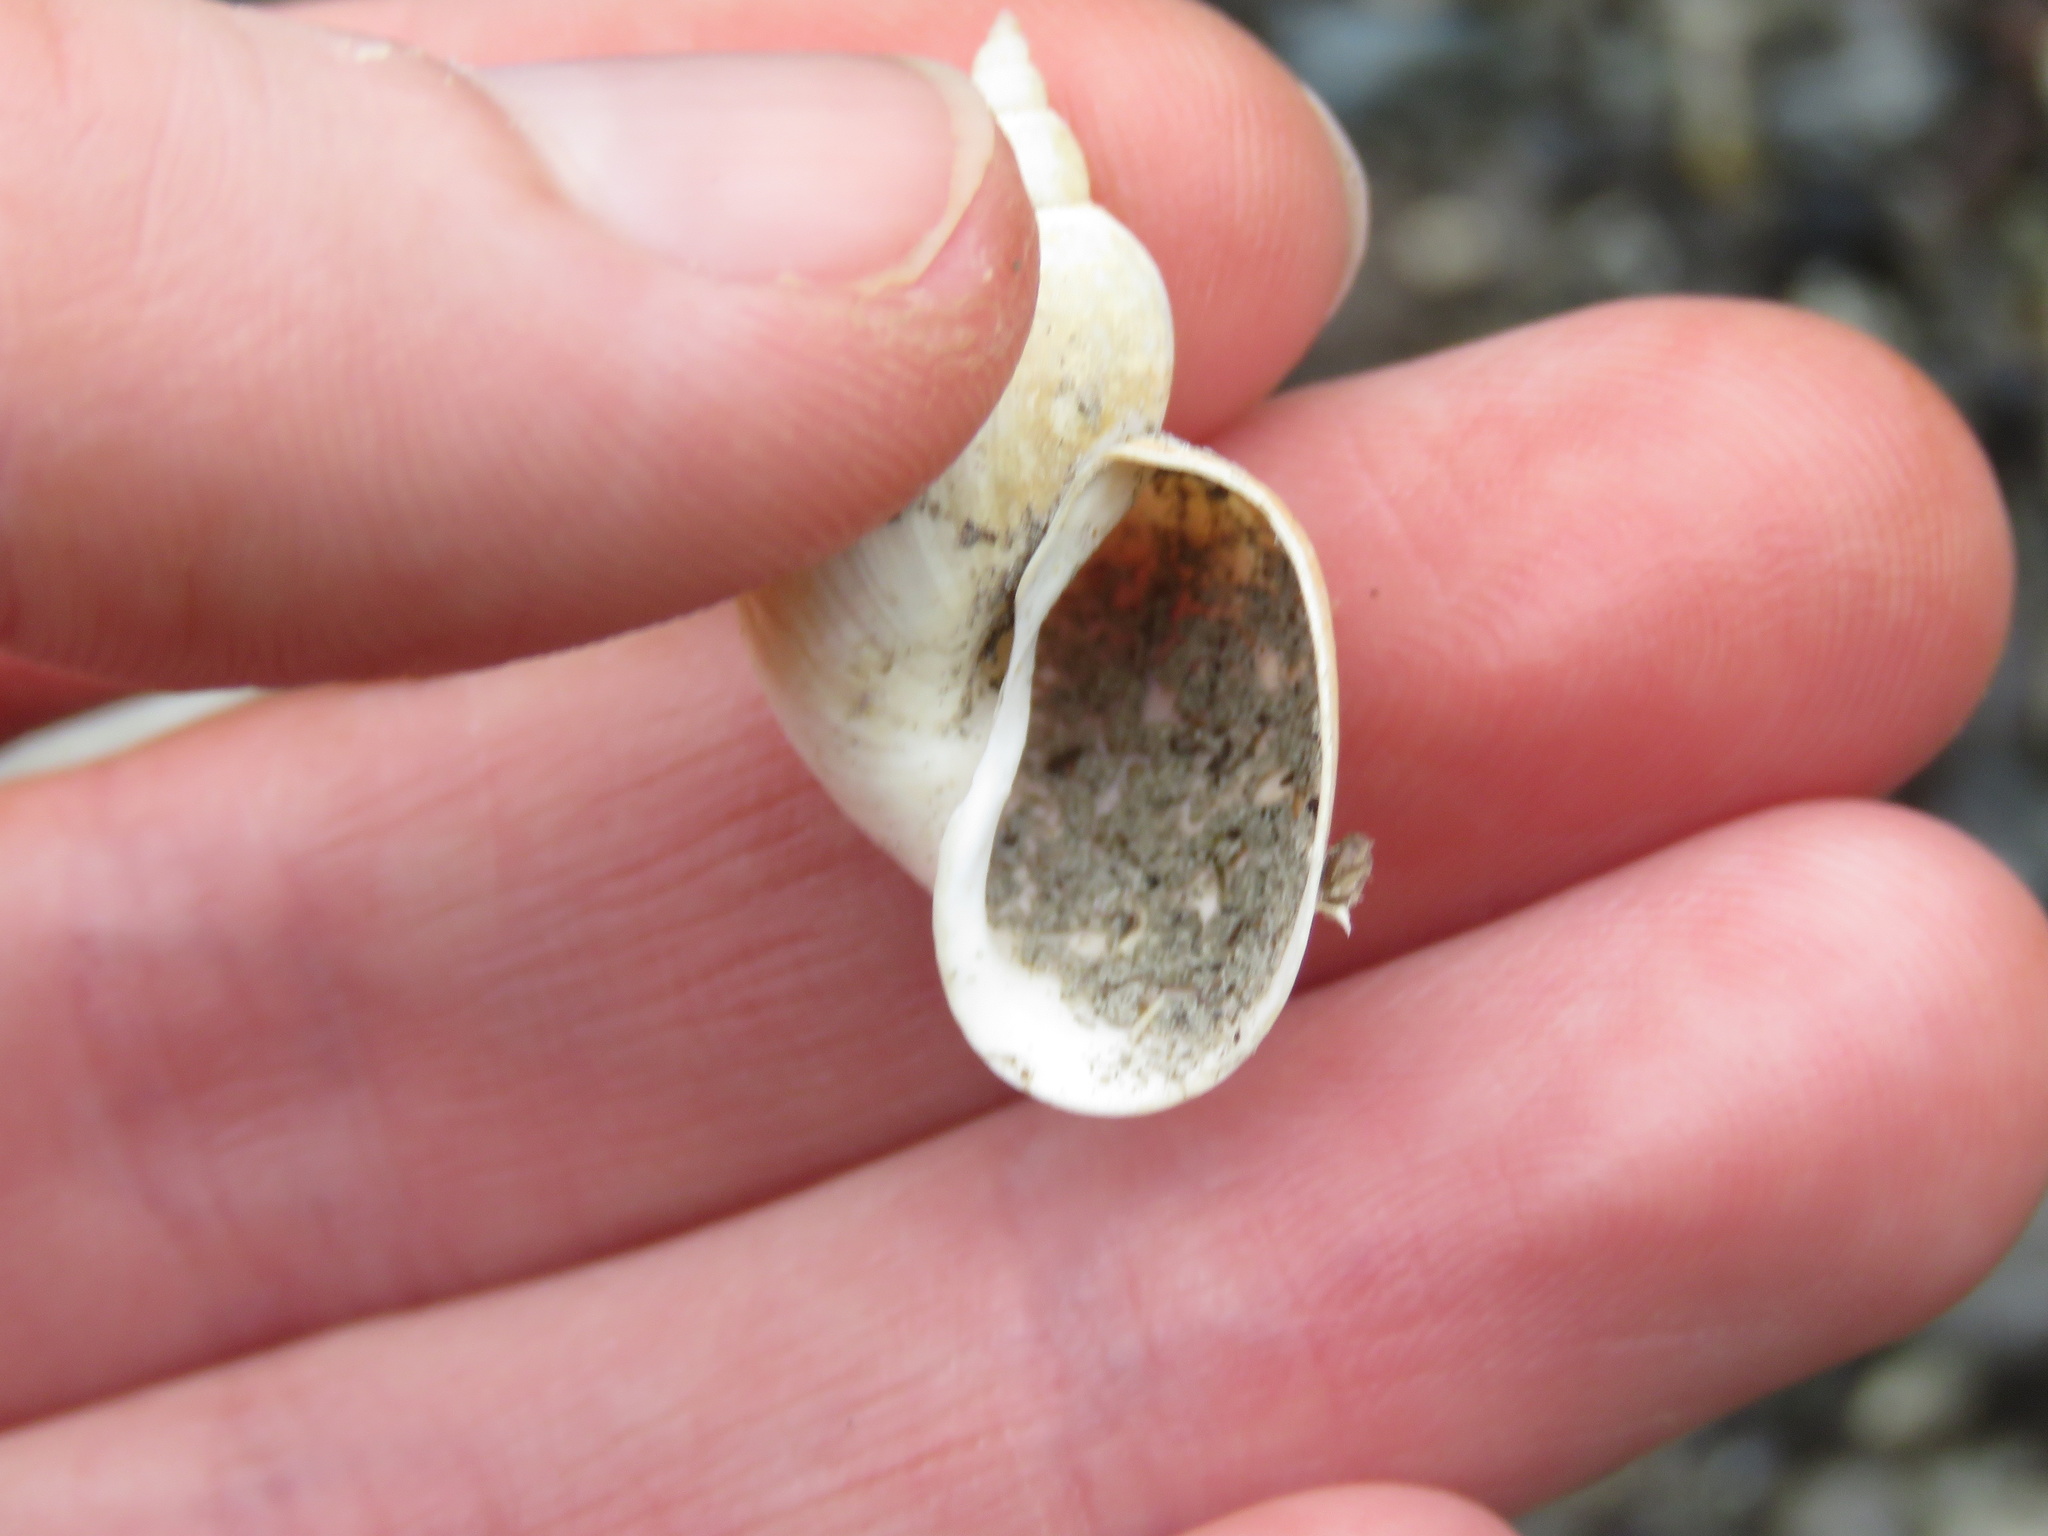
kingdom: Animalia
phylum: Mollusca
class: Gastropoda
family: Lymnaeidae
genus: Lymnaea
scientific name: Lymnaea stagnalis
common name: Great pond snail
